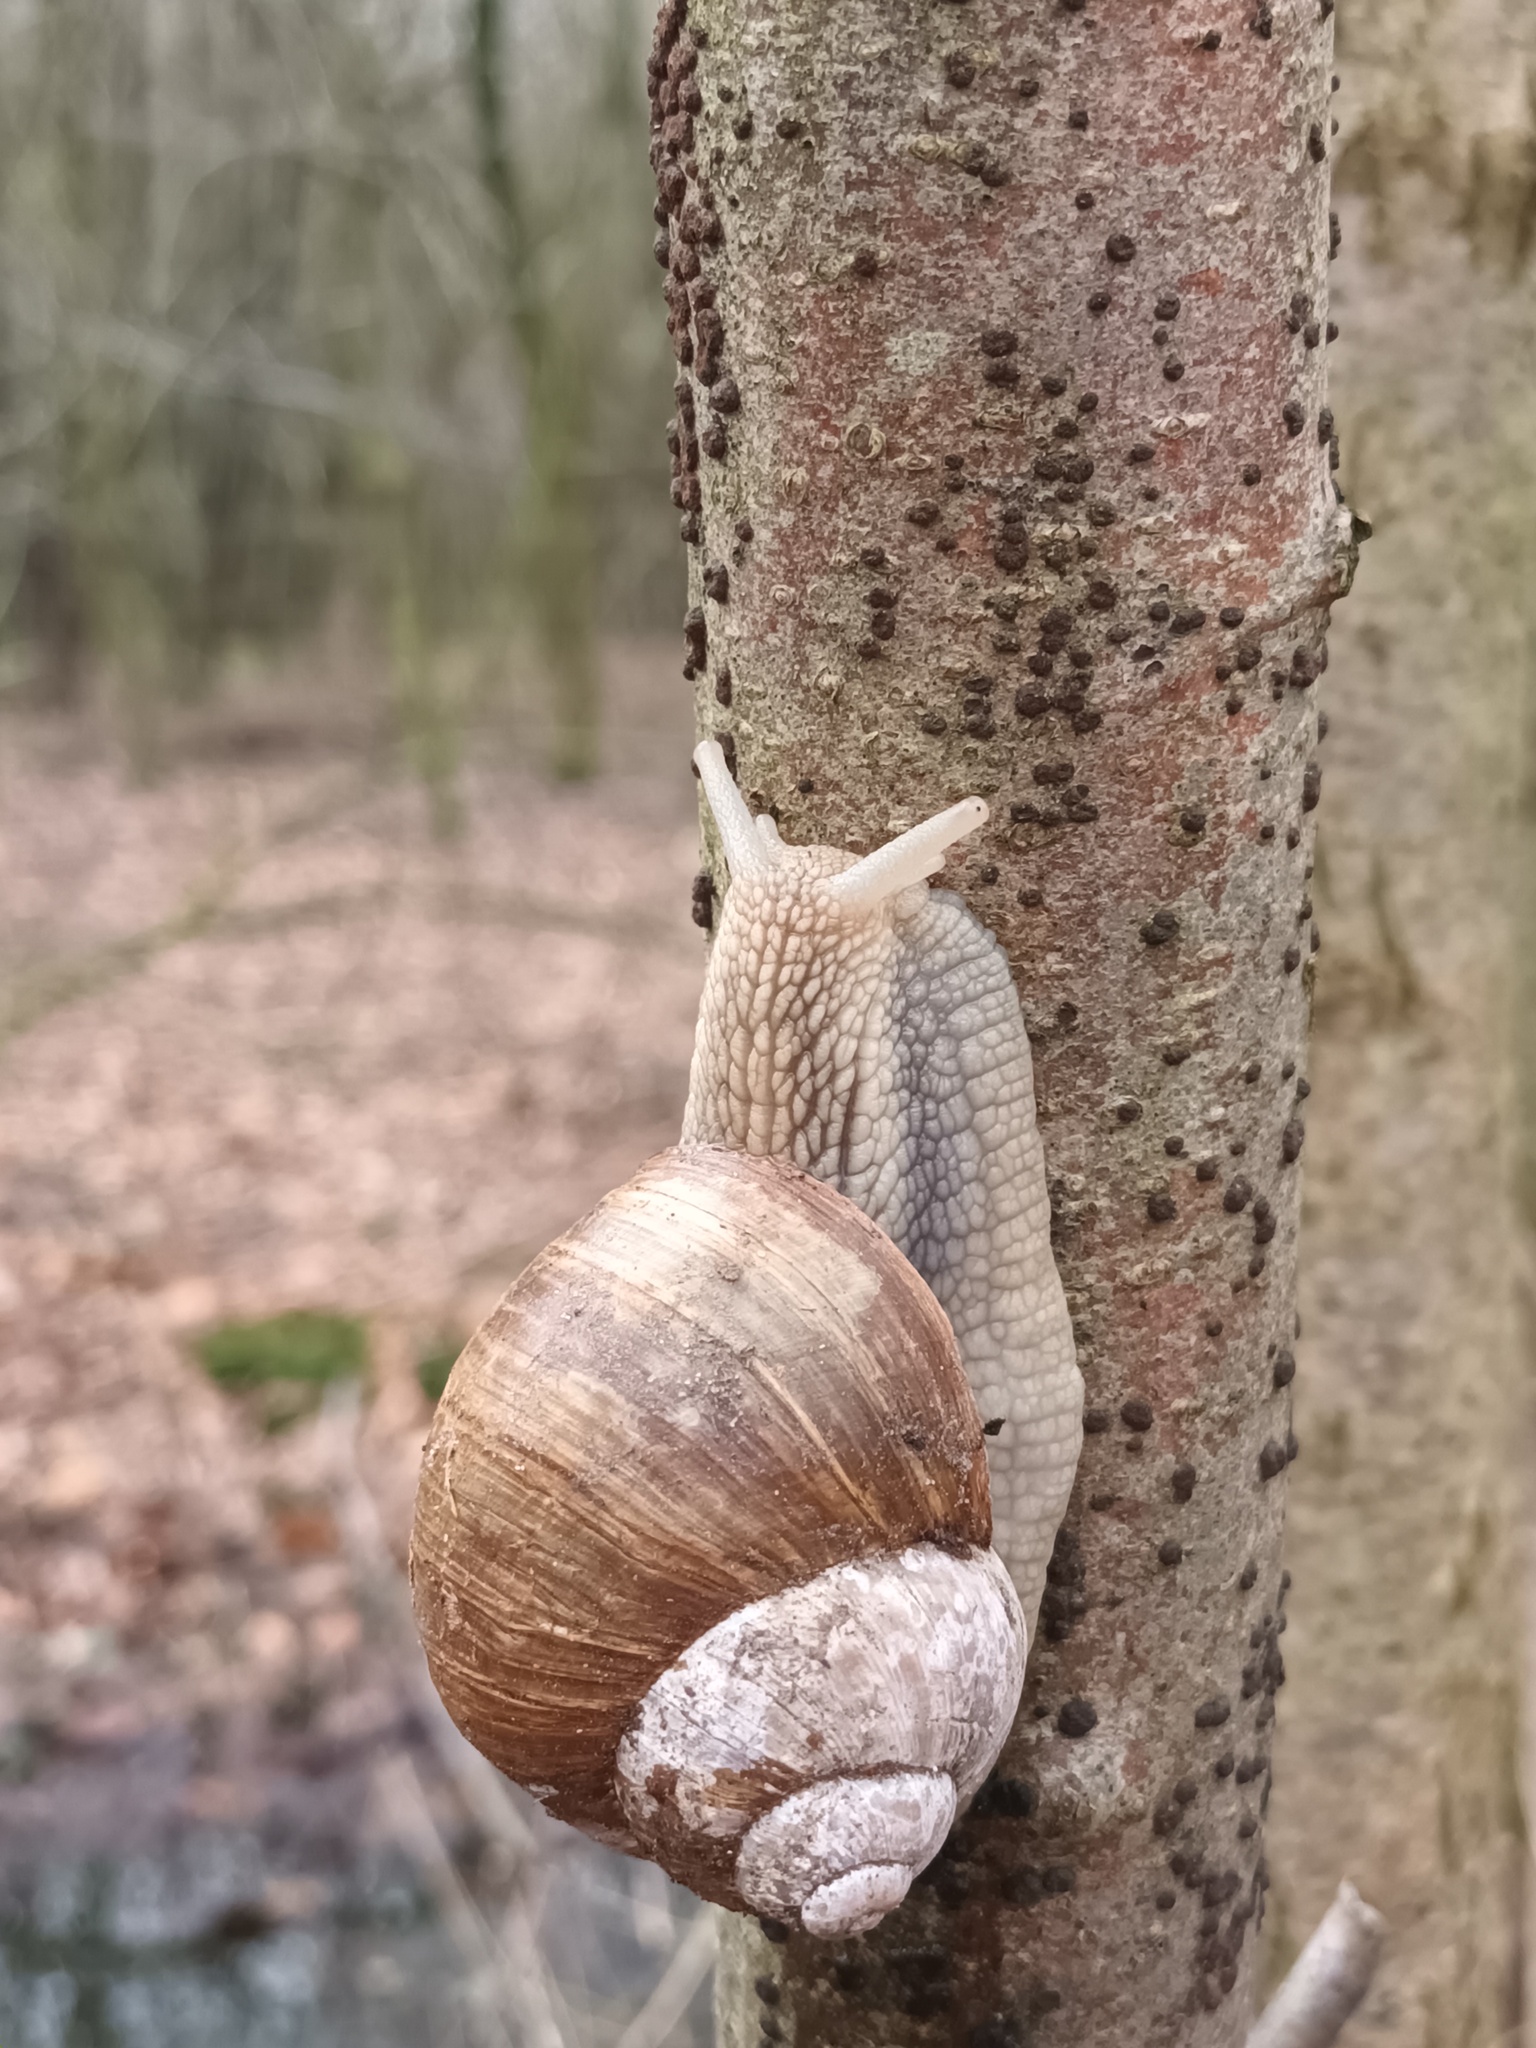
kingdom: Animalia
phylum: Mollusca
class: Gastropoda
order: Stylommatophora
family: Helicidae
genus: Helix
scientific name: Helix pomatia
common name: Roman snail
